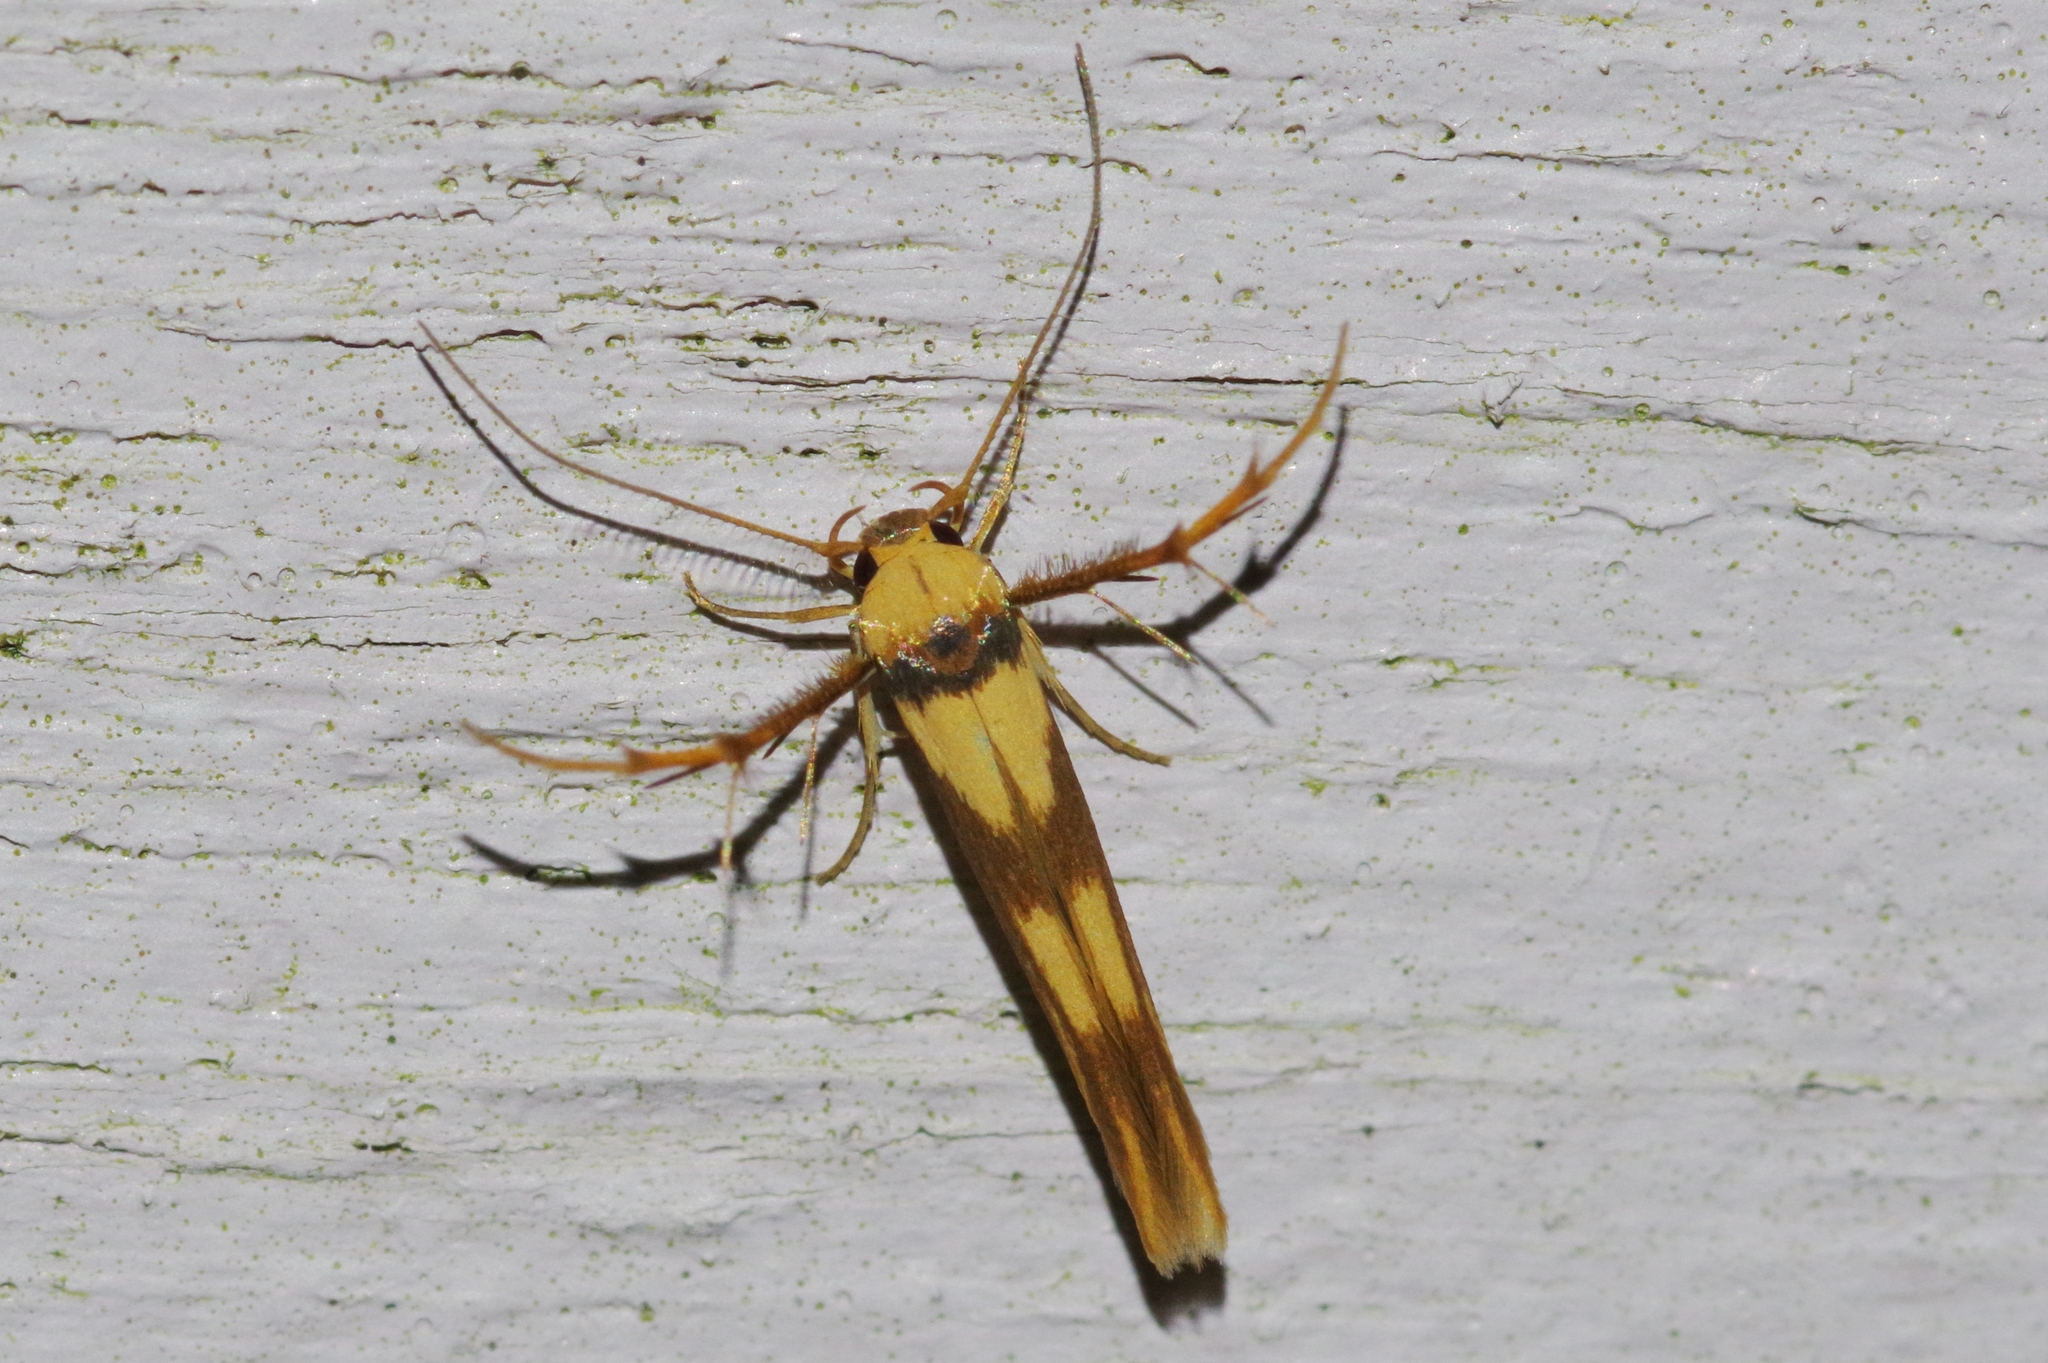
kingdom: Animalia
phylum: Arthropoda
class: Insecta
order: Lepidoptera
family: Stathmopodidae
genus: Stathmopoda
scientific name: Stathmopoda aprica
